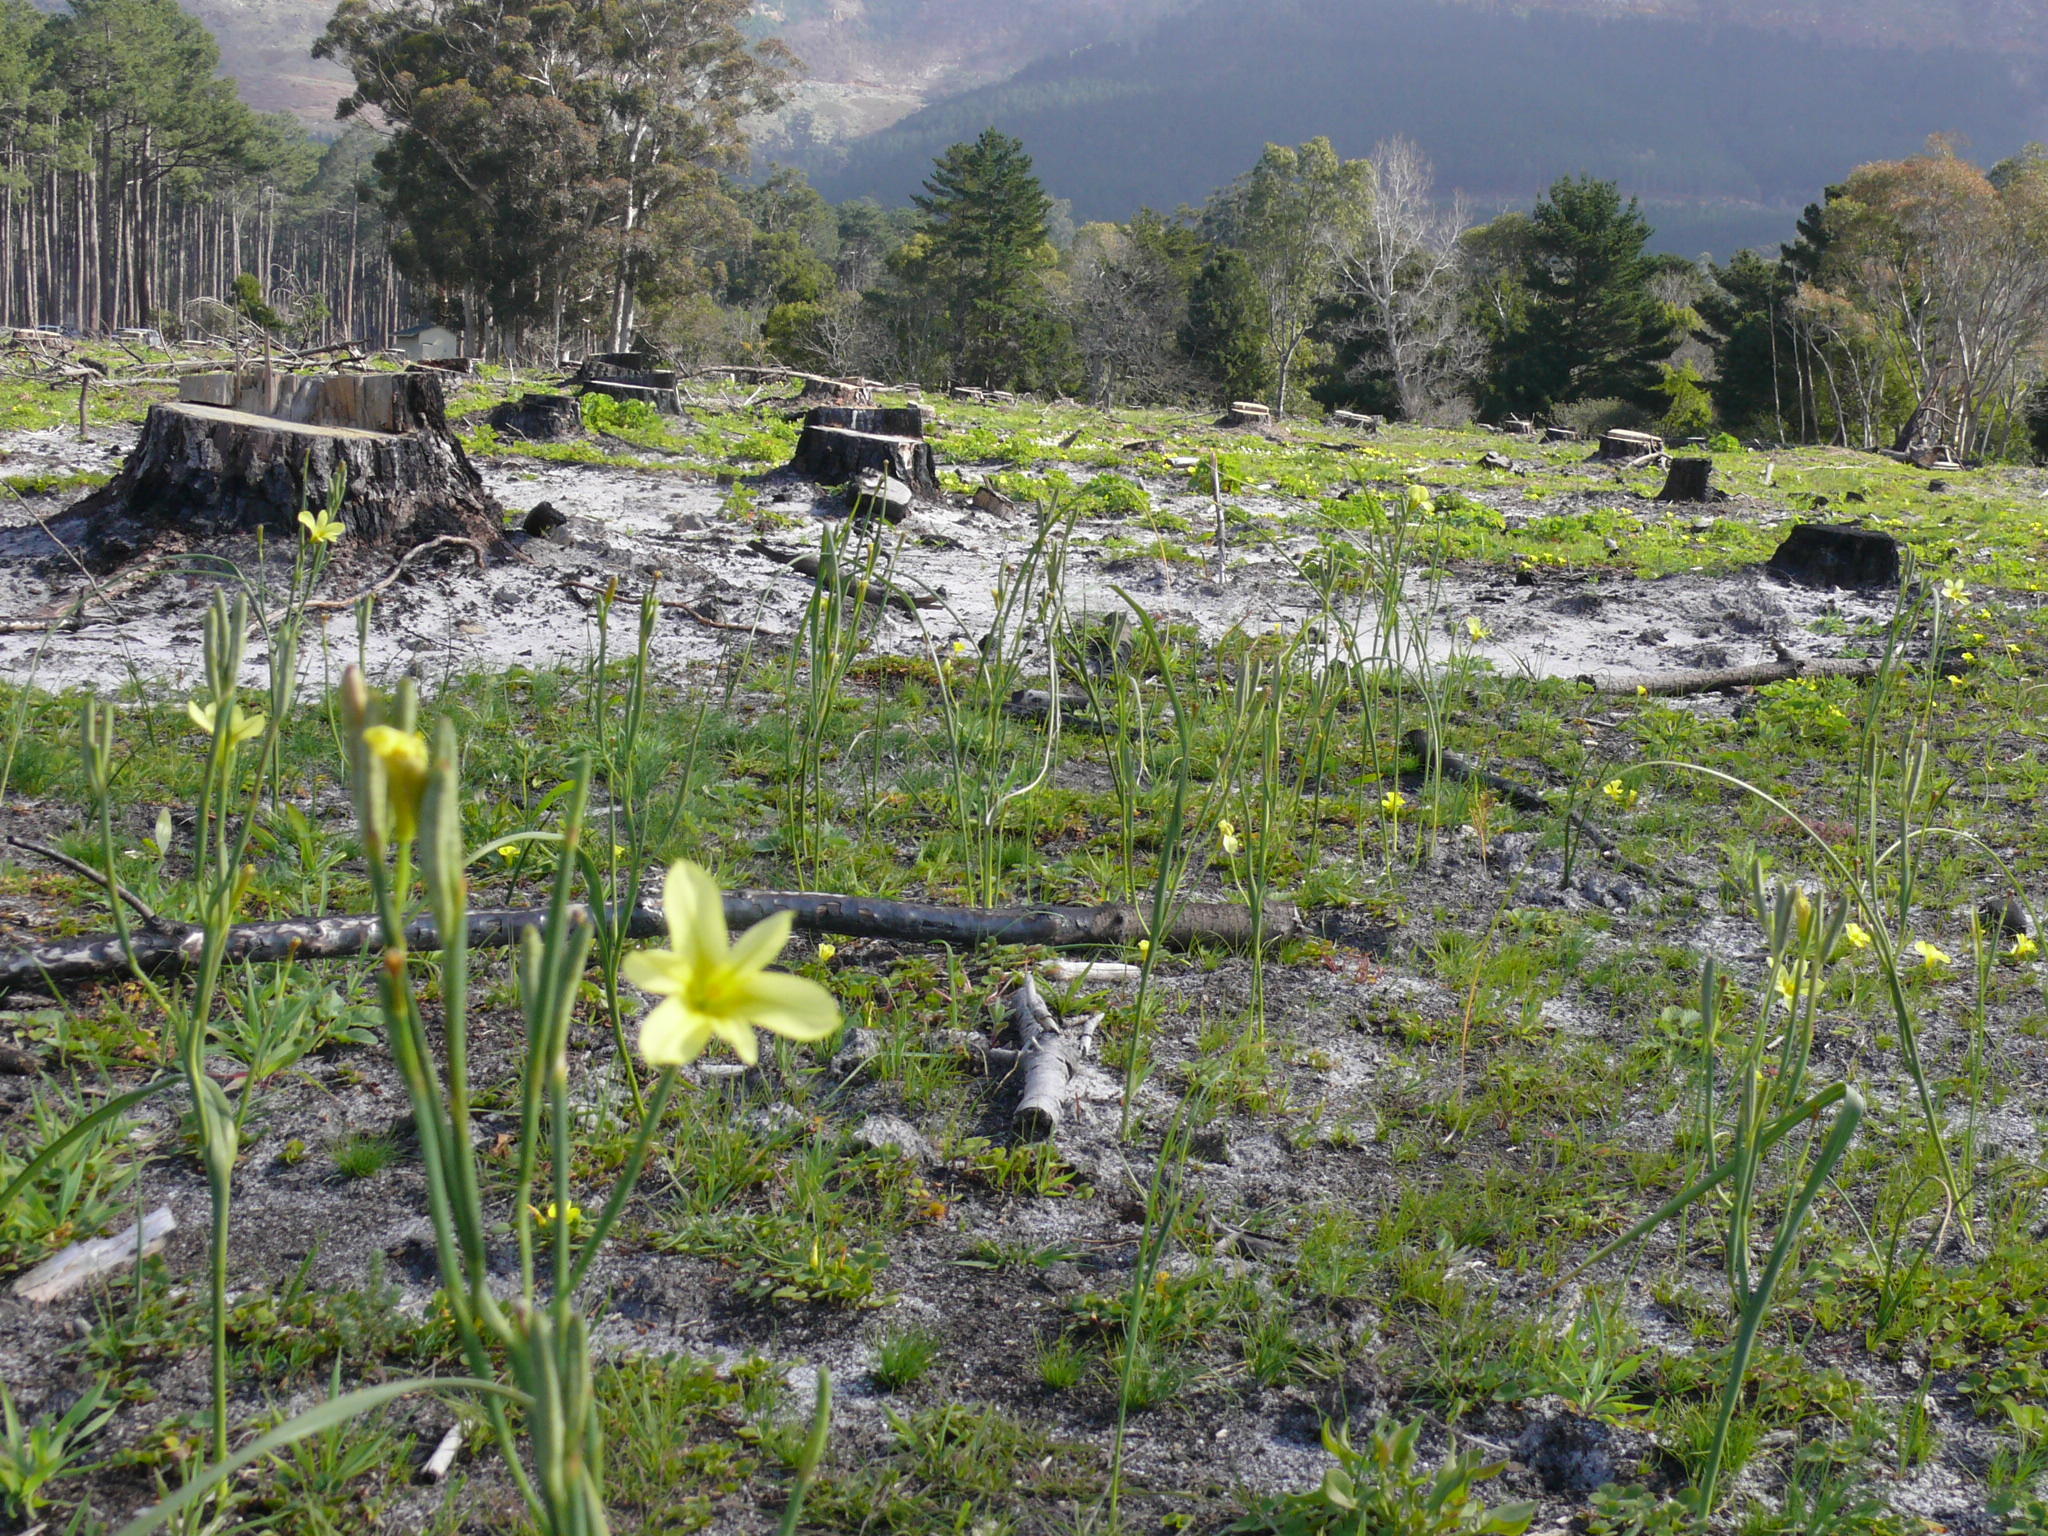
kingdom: Plantae
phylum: Tracheophyta
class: Liliopsida
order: Asparagales
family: Iridaceae
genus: Moraea
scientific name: Moraea collina
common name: Cape-tulip
